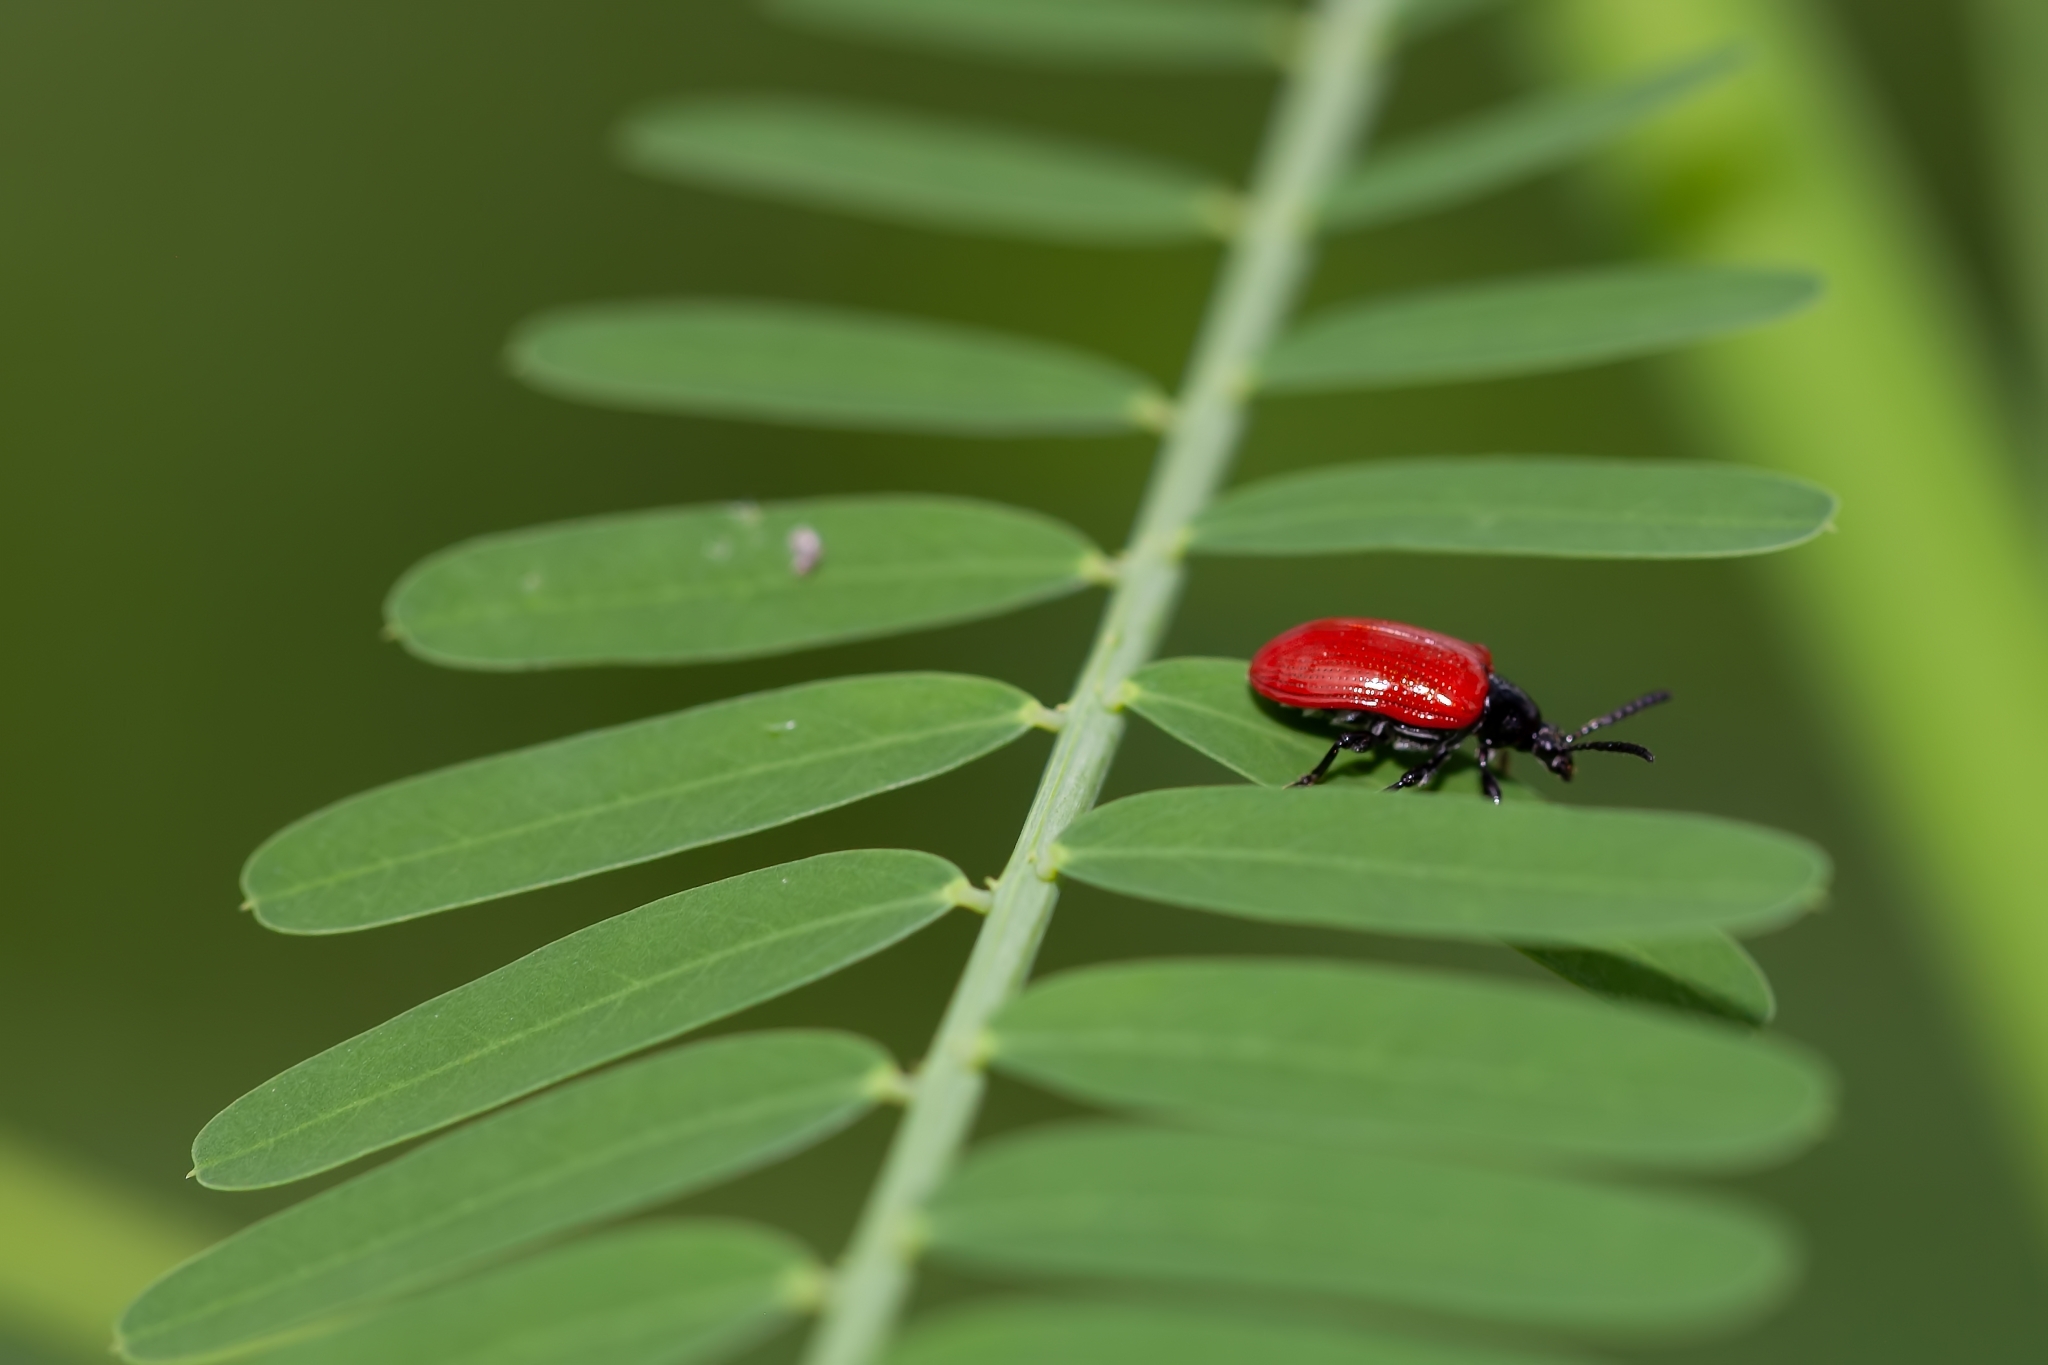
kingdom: Animalia
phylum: Arthropoda
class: Insecta
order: Coleoptera
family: Chrysomelidae
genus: Lilioceris
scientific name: Lilioceris cheni
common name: Leaf beetle
